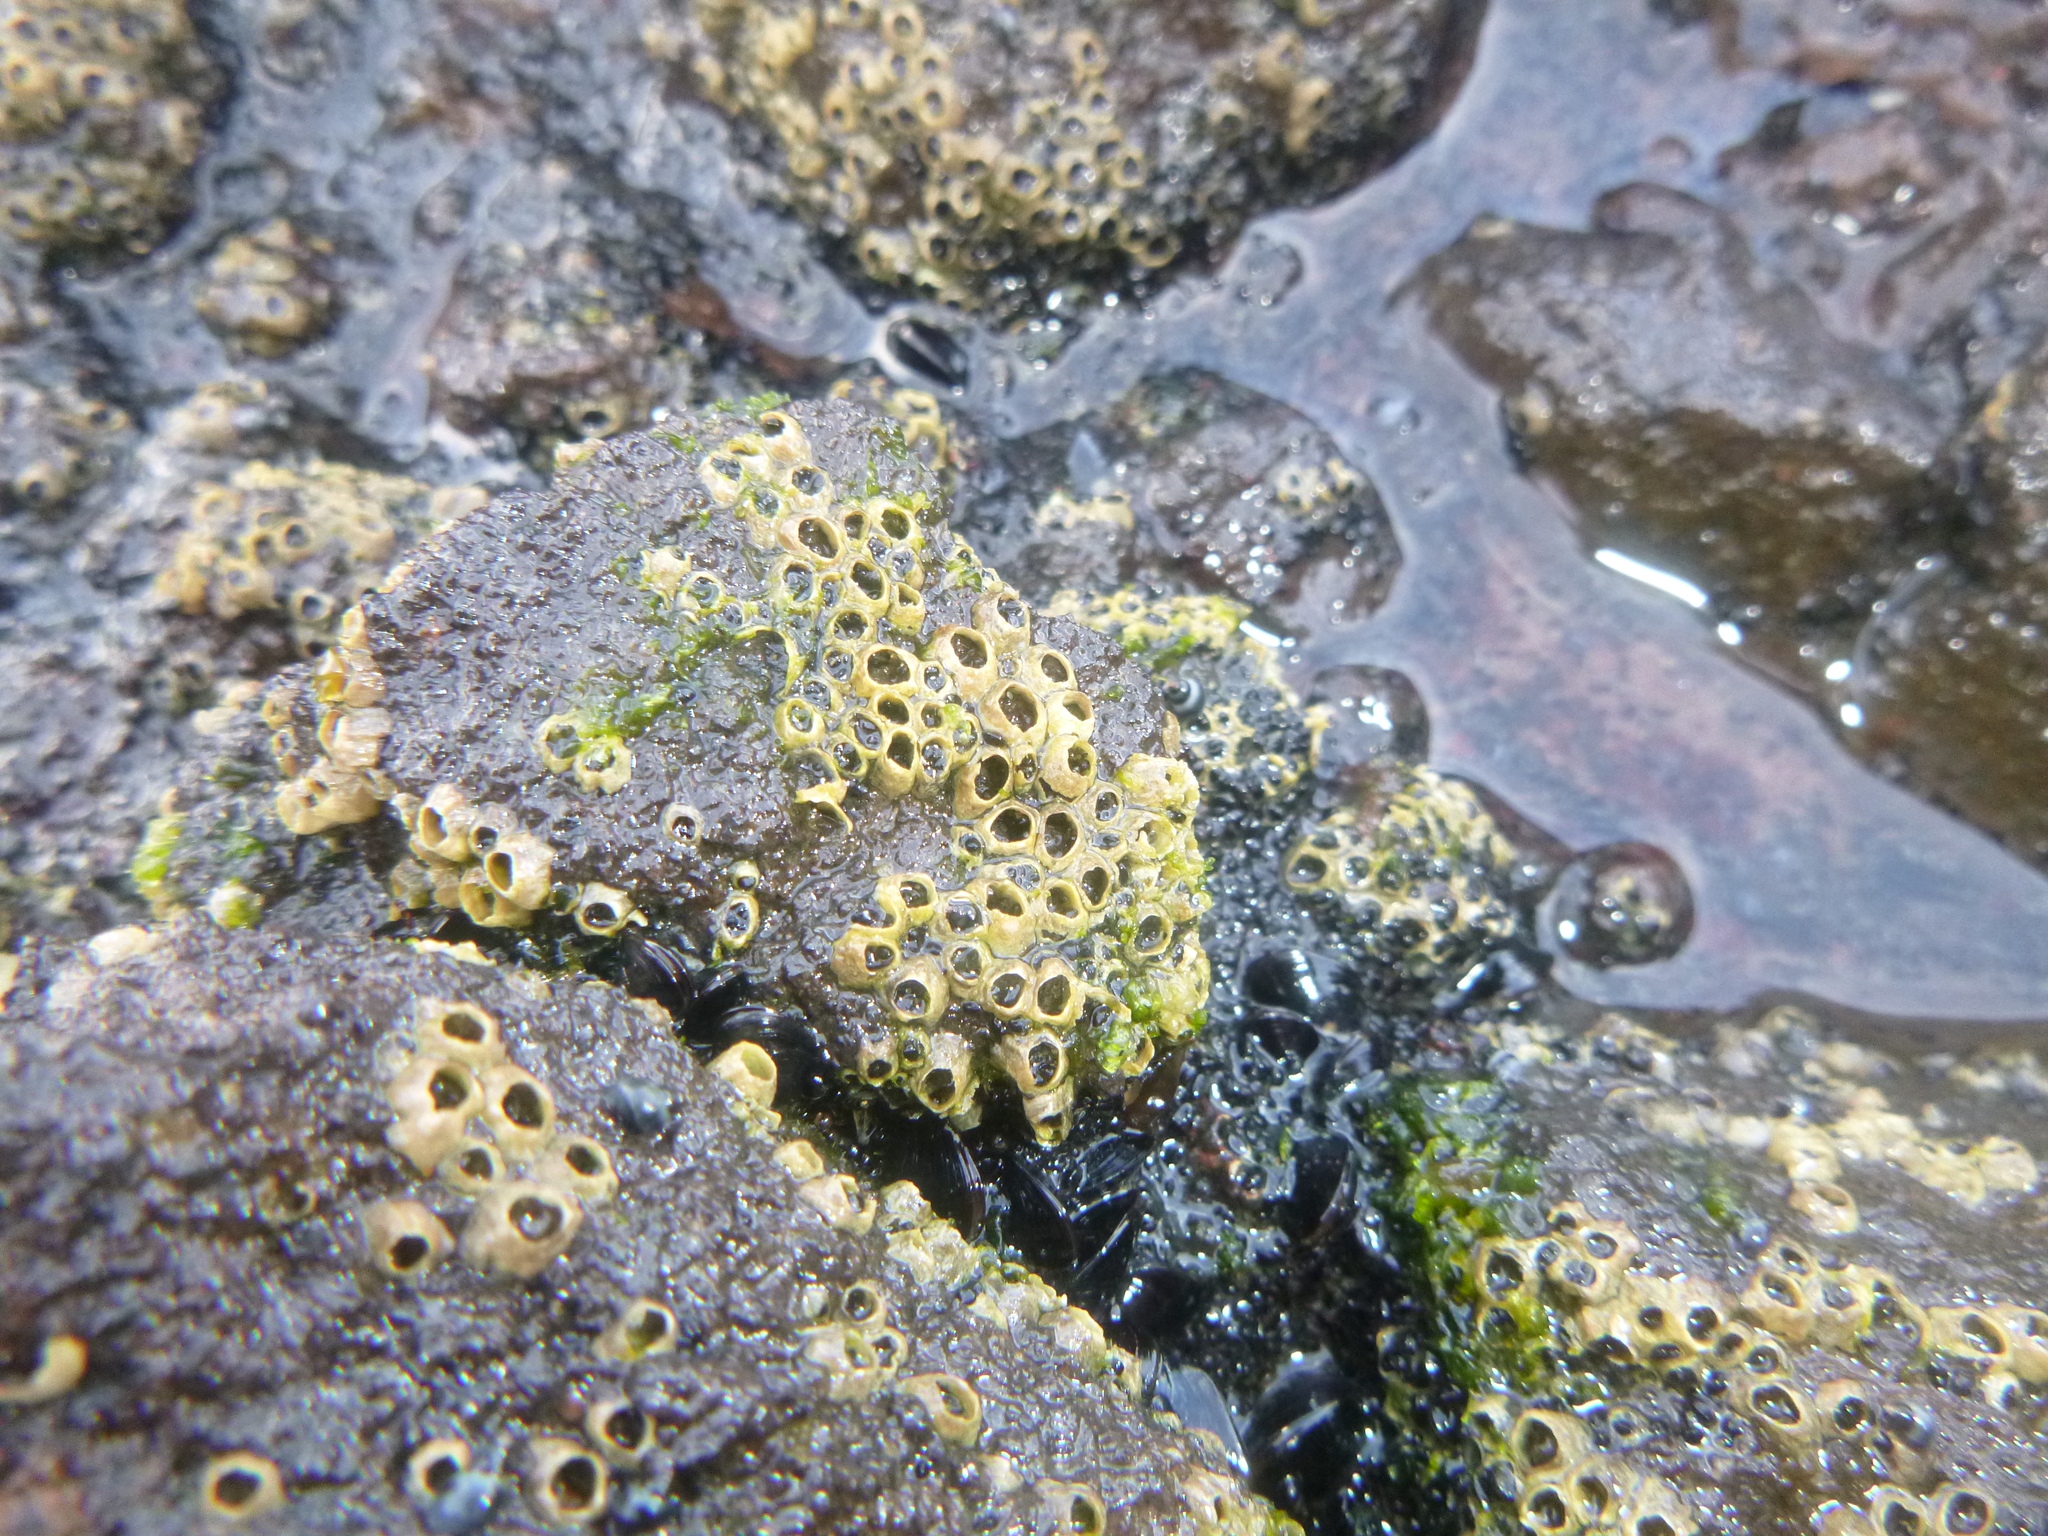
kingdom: Animalia
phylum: Arthropoda
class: Maxillopoda
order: Sessilia
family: Chthamalidae
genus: Chamaesipho
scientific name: Chamaesipho columna
